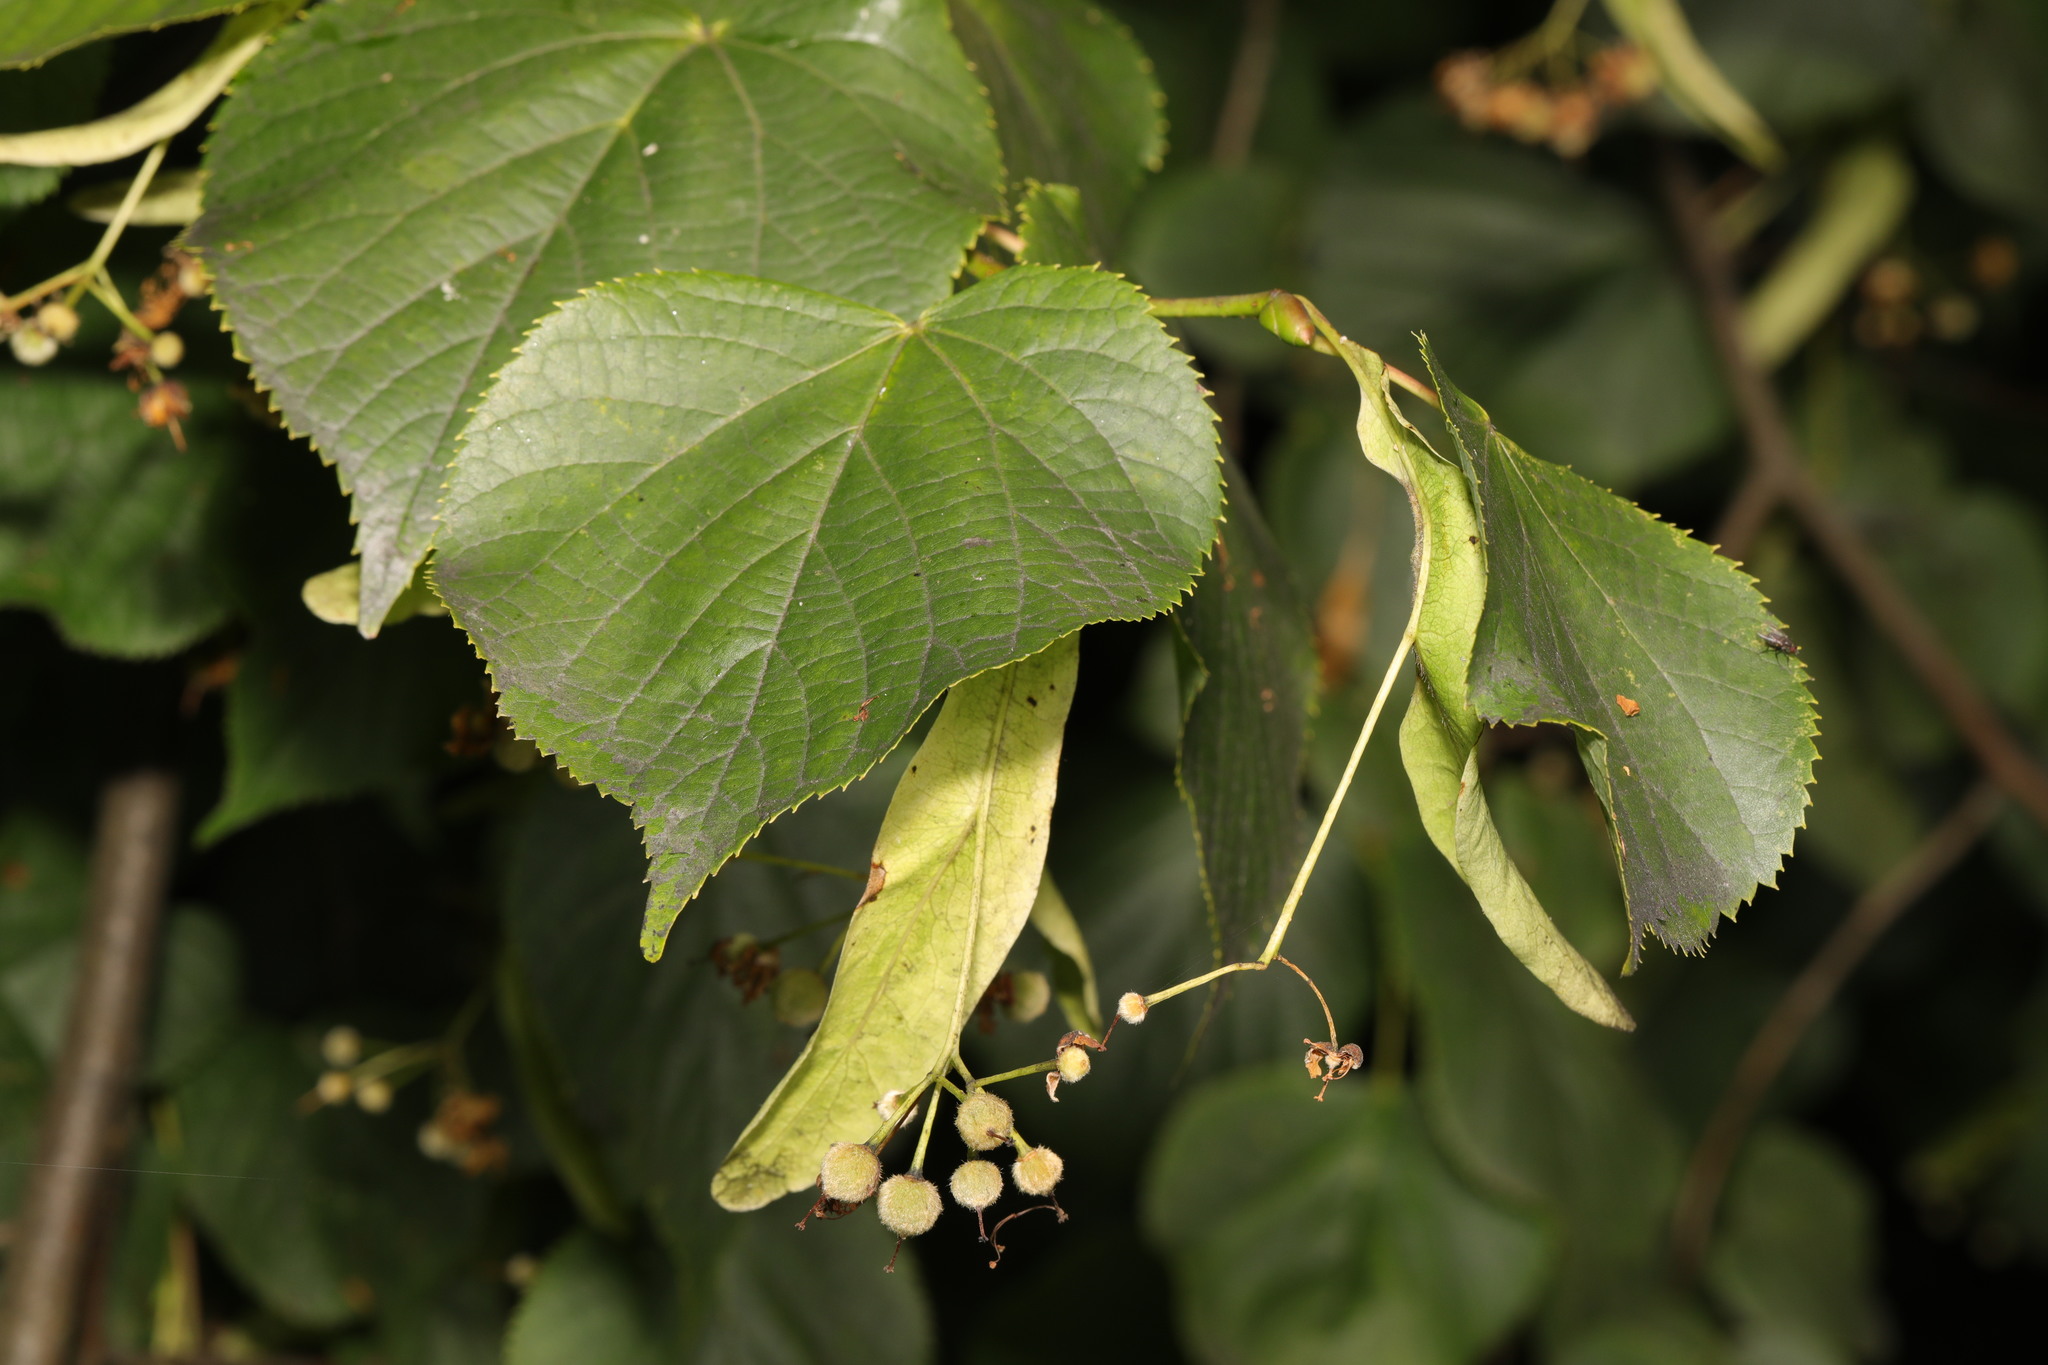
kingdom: Plantae
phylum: Tracheophyta
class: Magnoliopsida
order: Malvales
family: Malvaceae
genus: Tilia
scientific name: Tilia europaea
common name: European linden
